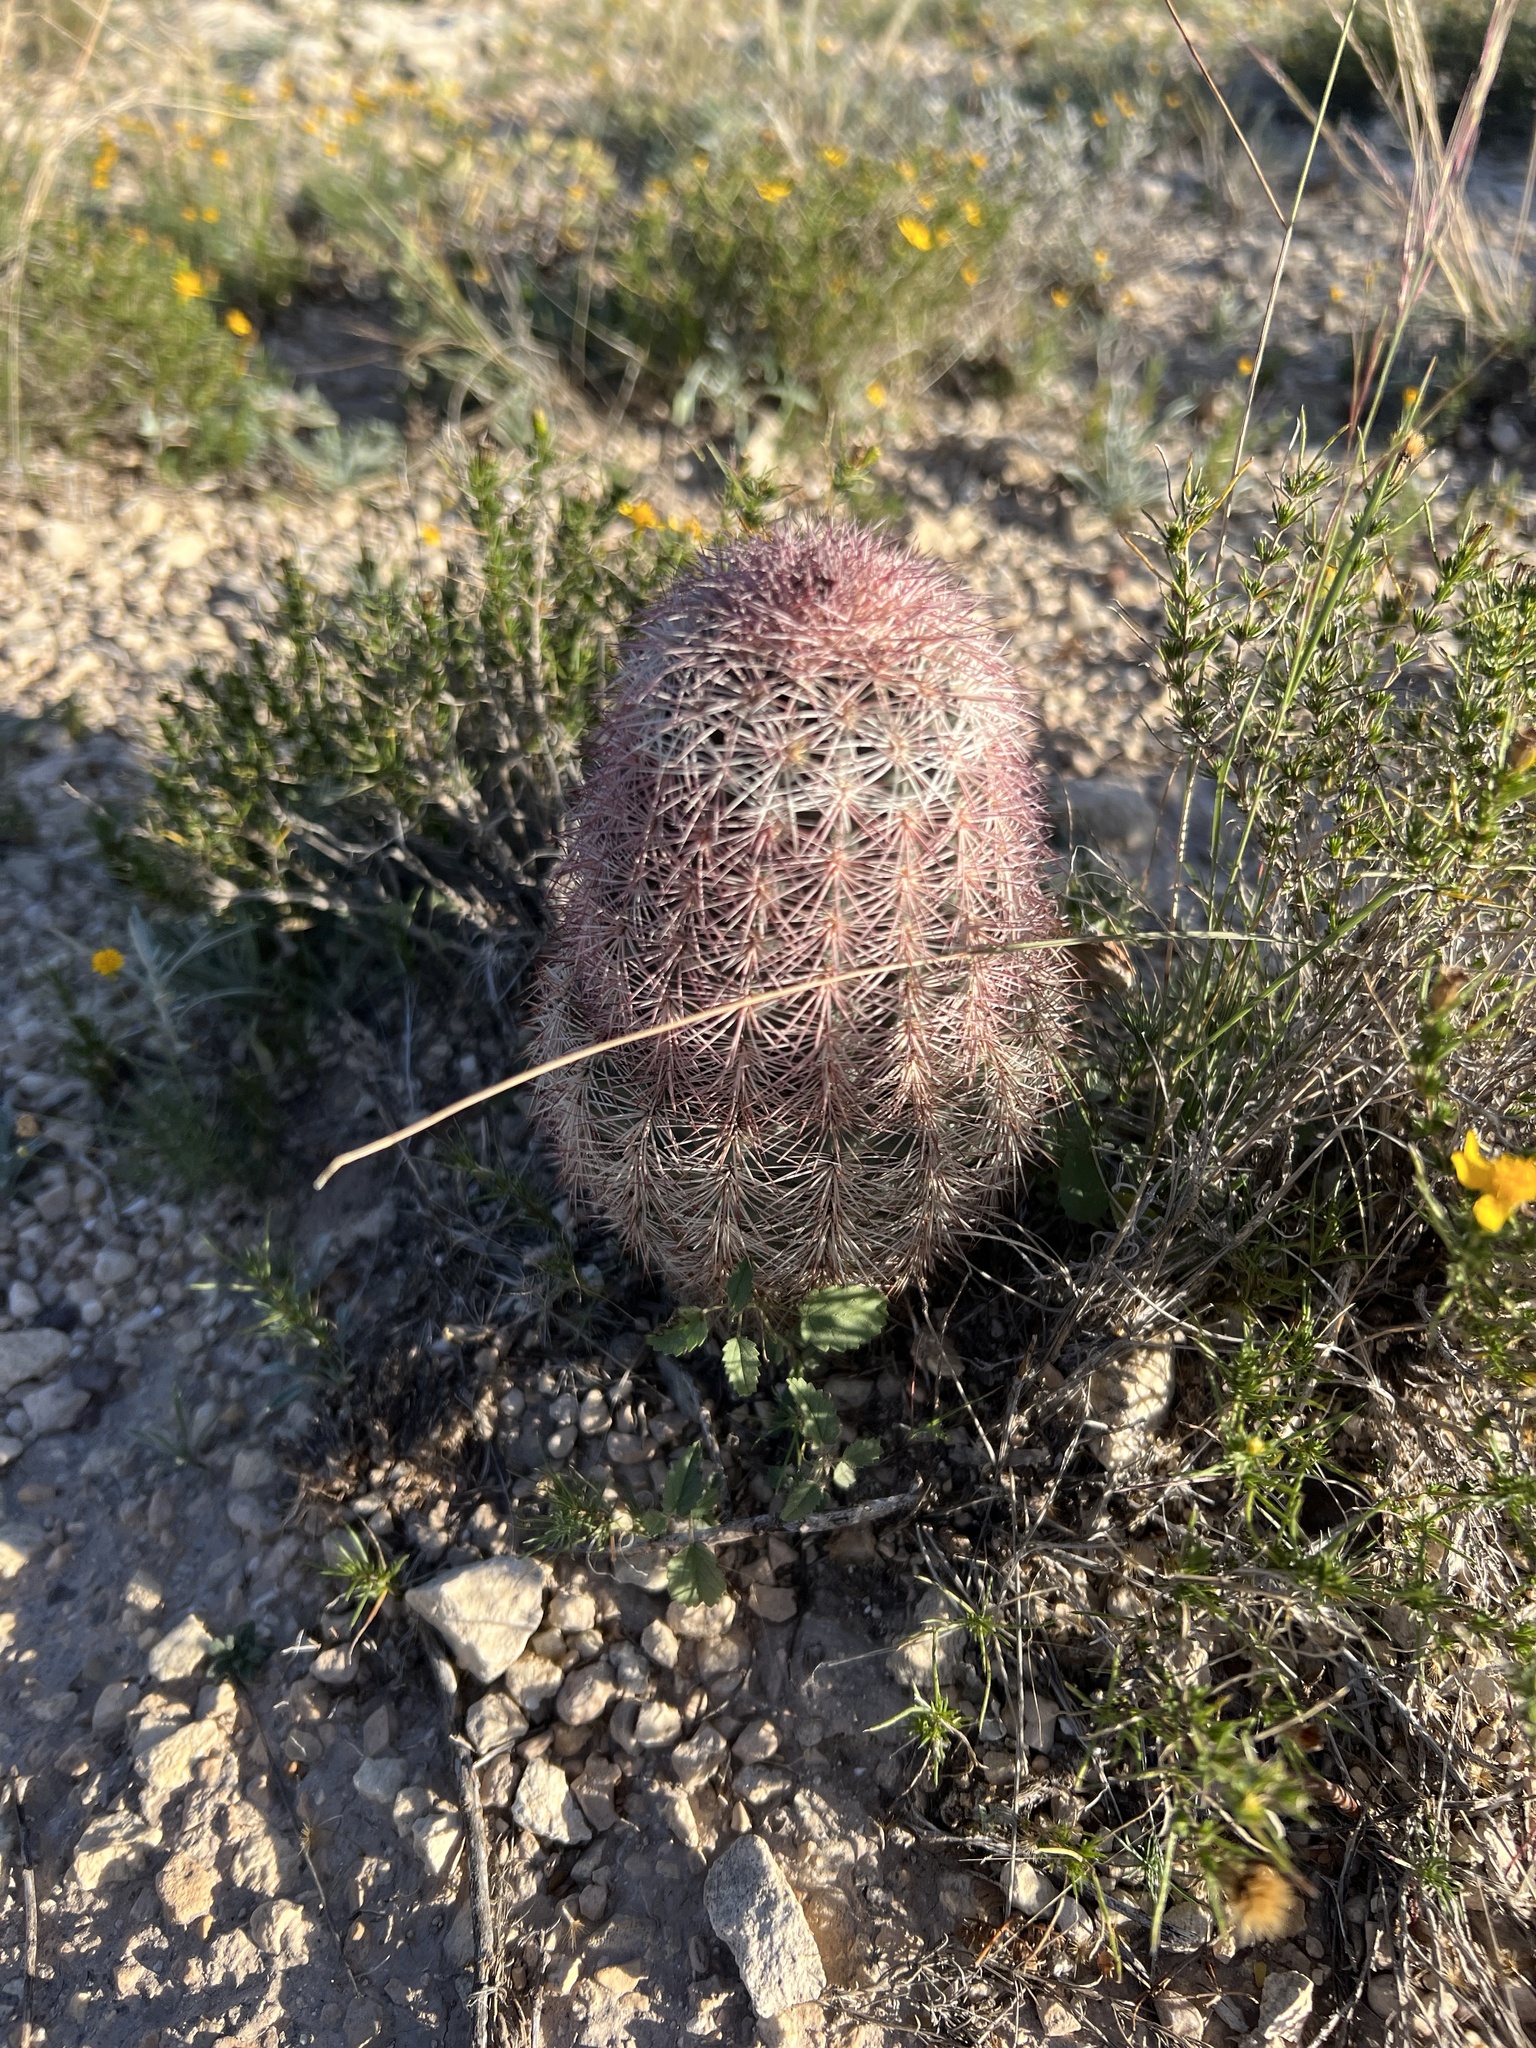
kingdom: Plantae
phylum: Tracheophyta
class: Magnoliopsida
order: Caryophyllales
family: Cactaceae
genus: Echinocereus
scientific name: Echinocereus dasyacanthus
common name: Spiny hedgehog cactus
